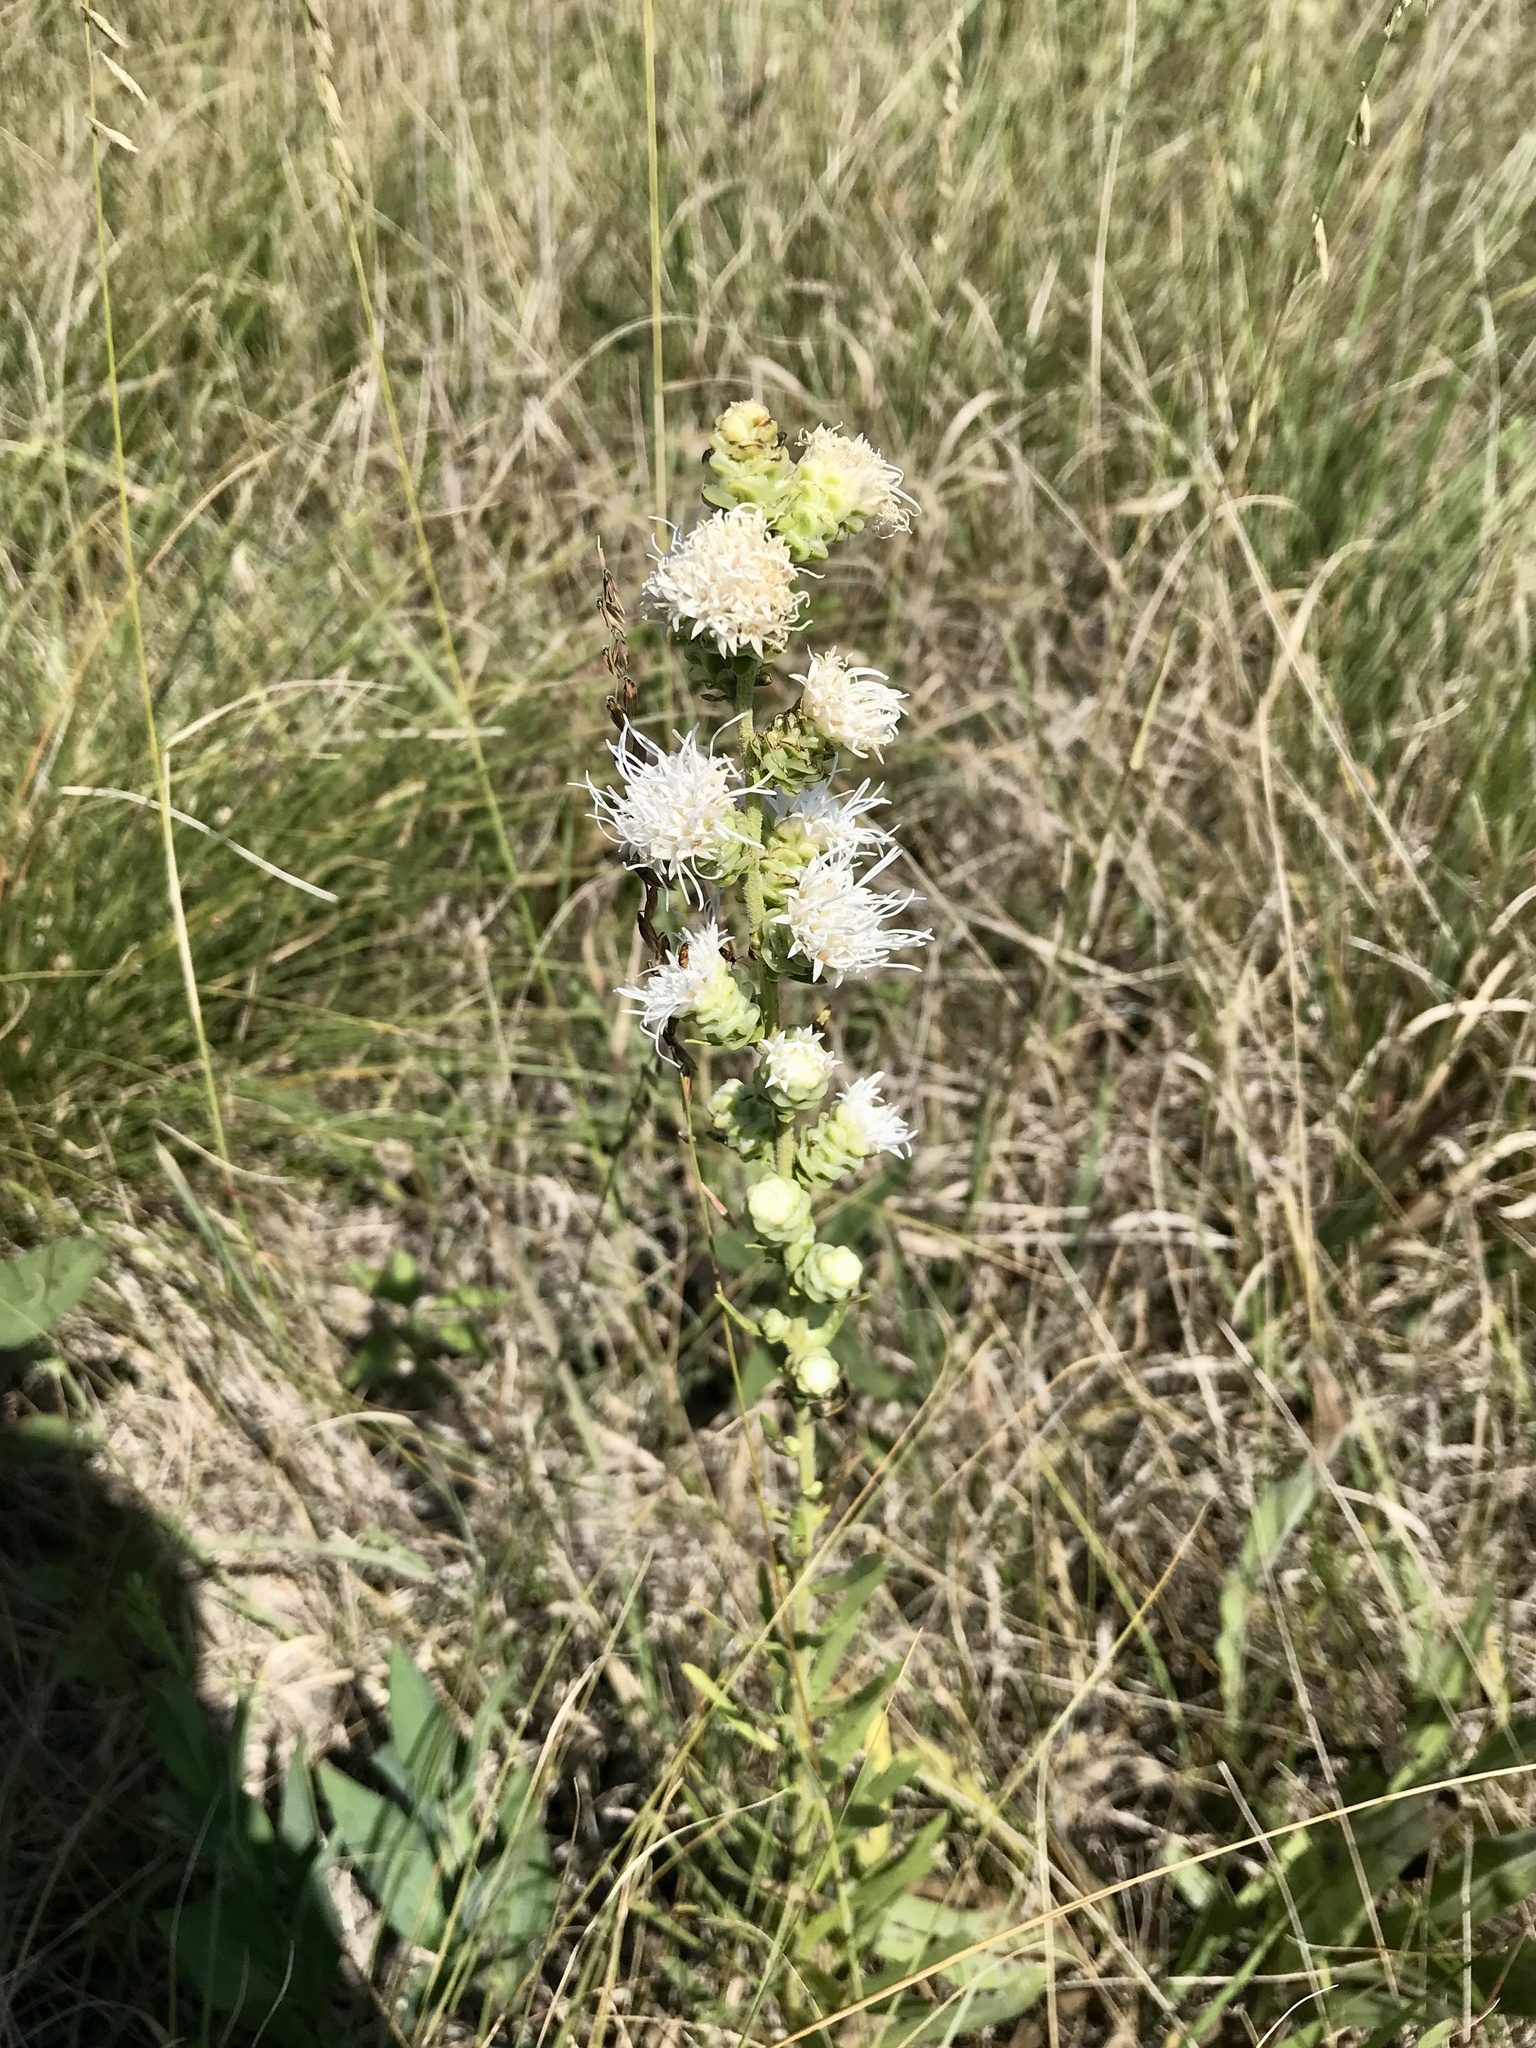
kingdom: Plantae
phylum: Tracheophyta
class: Magnoliopsida
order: Asterales
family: Asteraceae
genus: Liatris
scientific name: Liatris aspera
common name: Lacerate blazing-star
